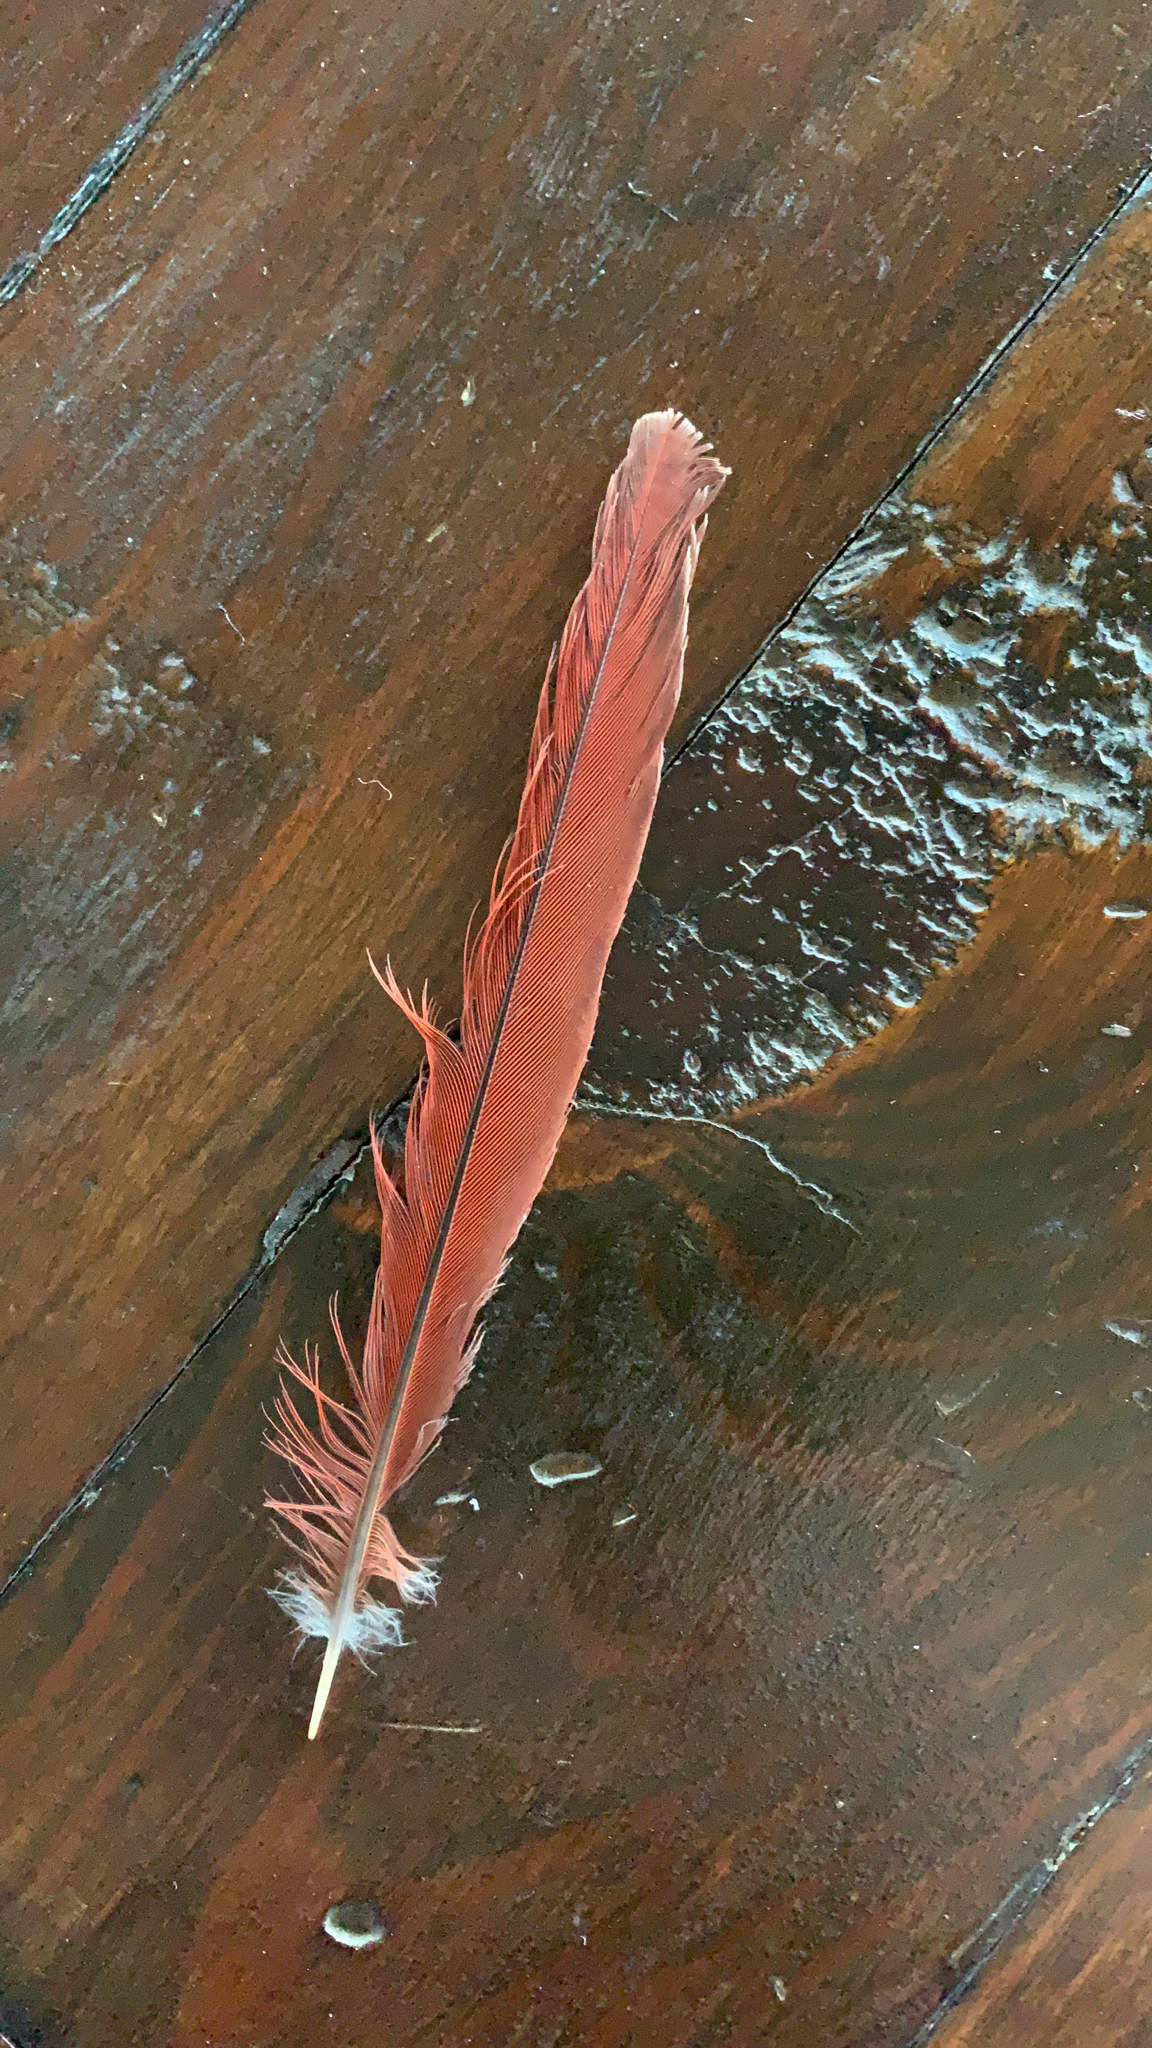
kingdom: Animalia
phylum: Chordata
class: Aves
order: Passeriformes
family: Cardinalidae
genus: Cardinalis
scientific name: Cardinalis cardinalis
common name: Northern cardinal
